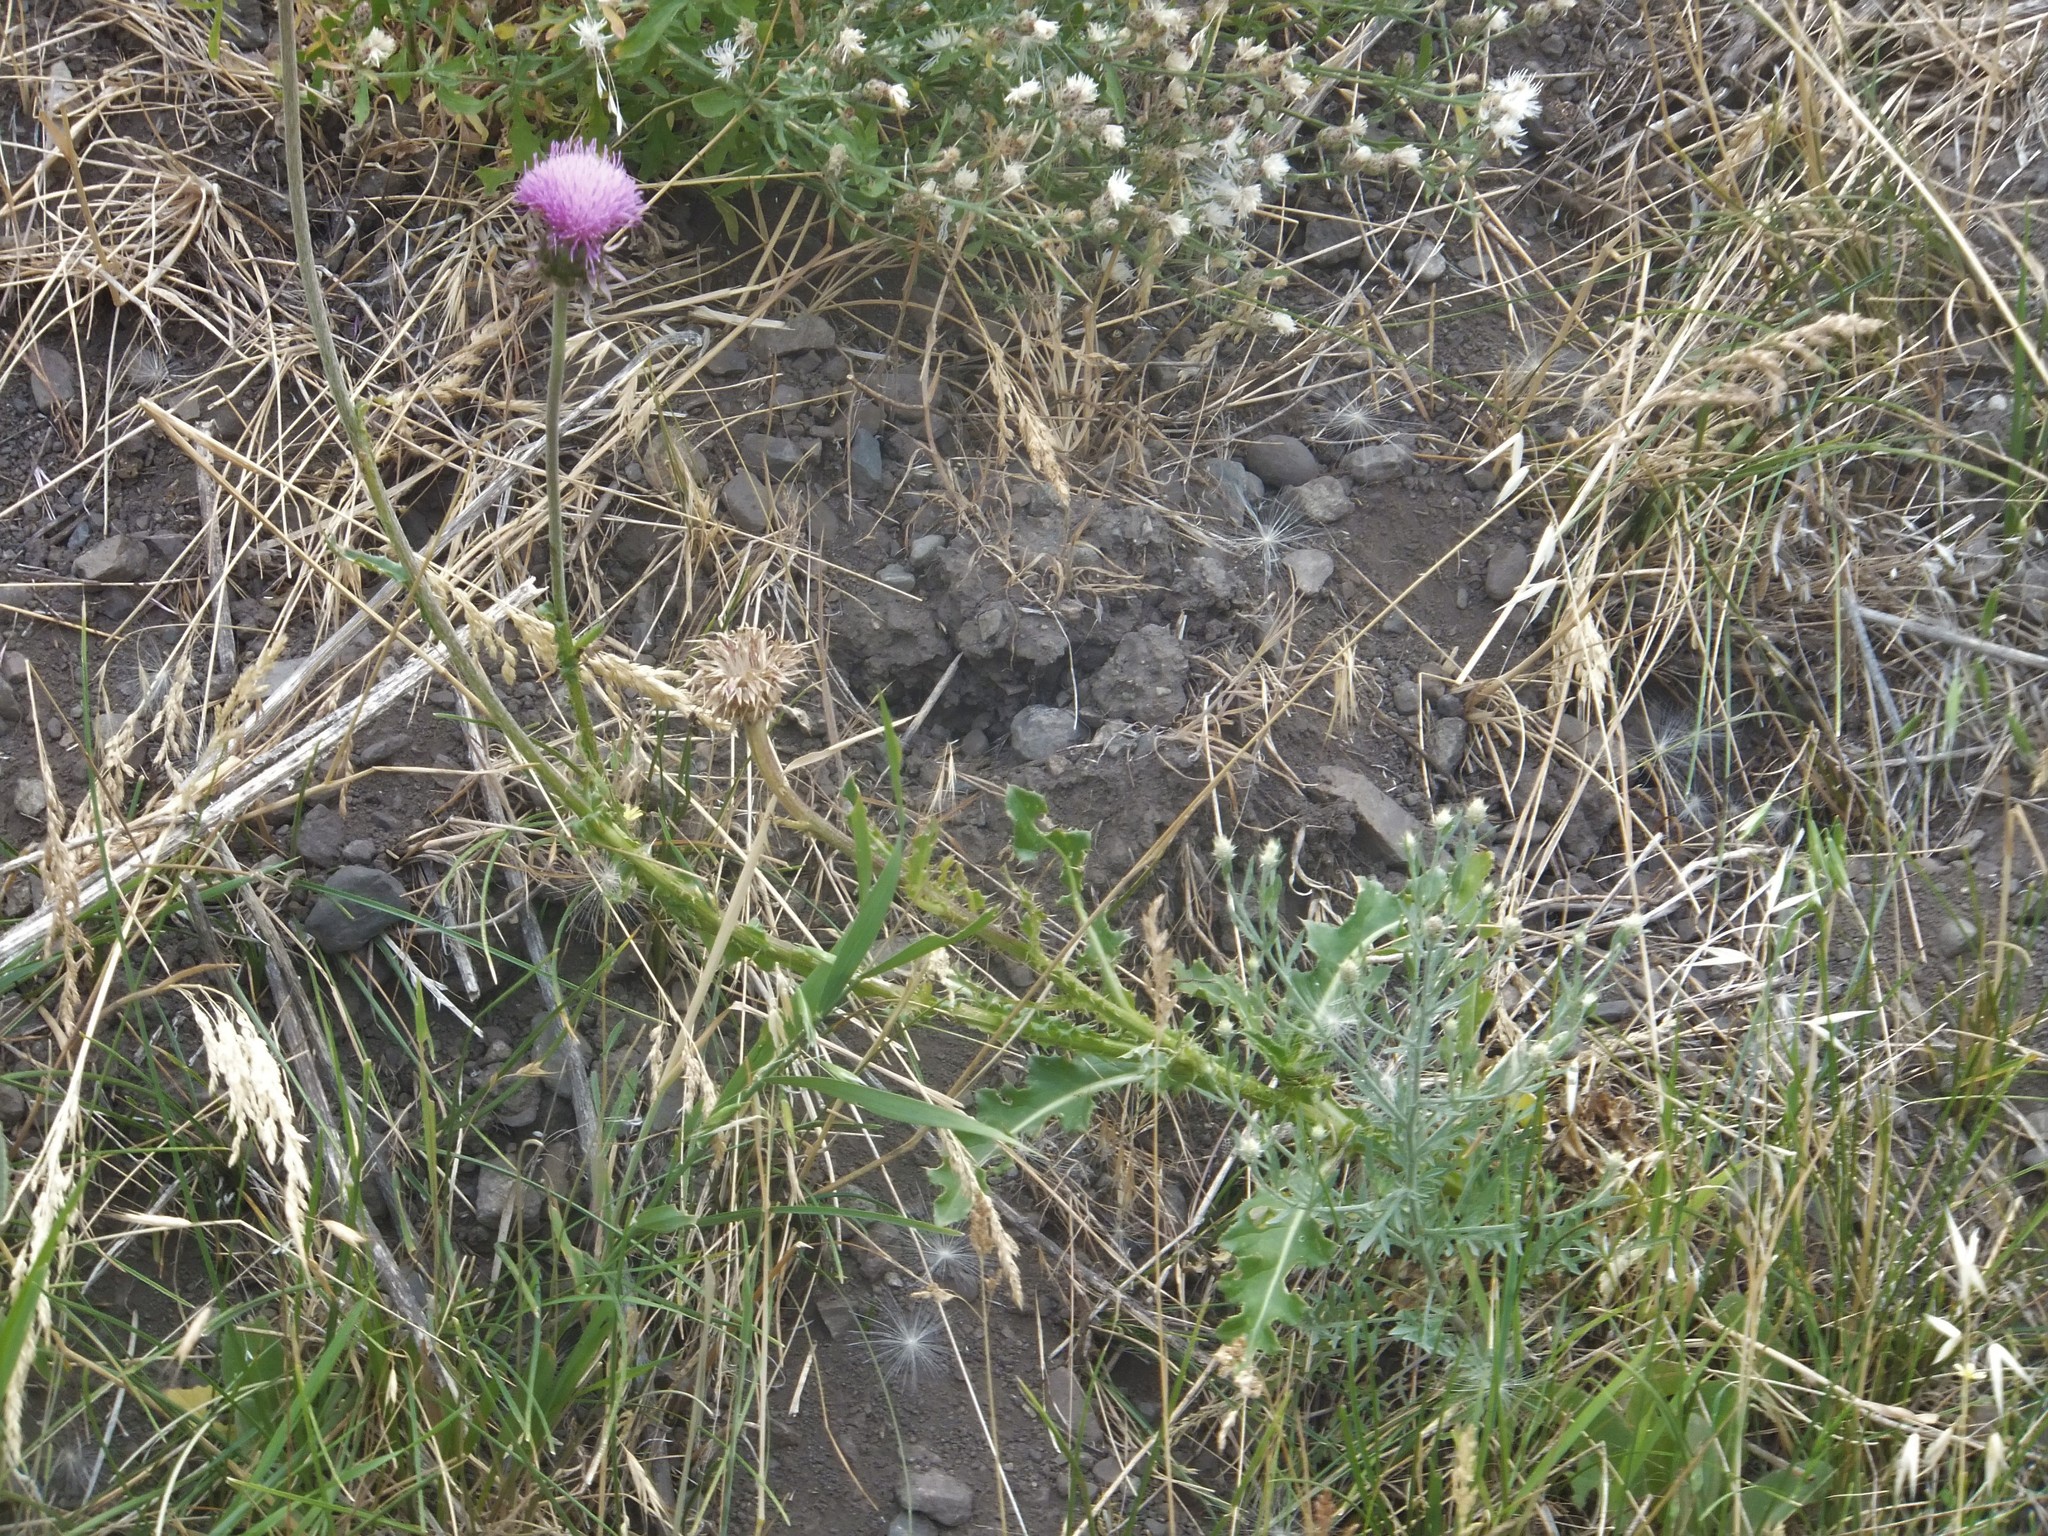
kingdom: Plantae
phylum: Tracheophyta
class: Magnoliopsida
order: Asterales
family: Asteraceae
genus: Carduus
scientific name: Carduus nutans
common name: Musk thistle
